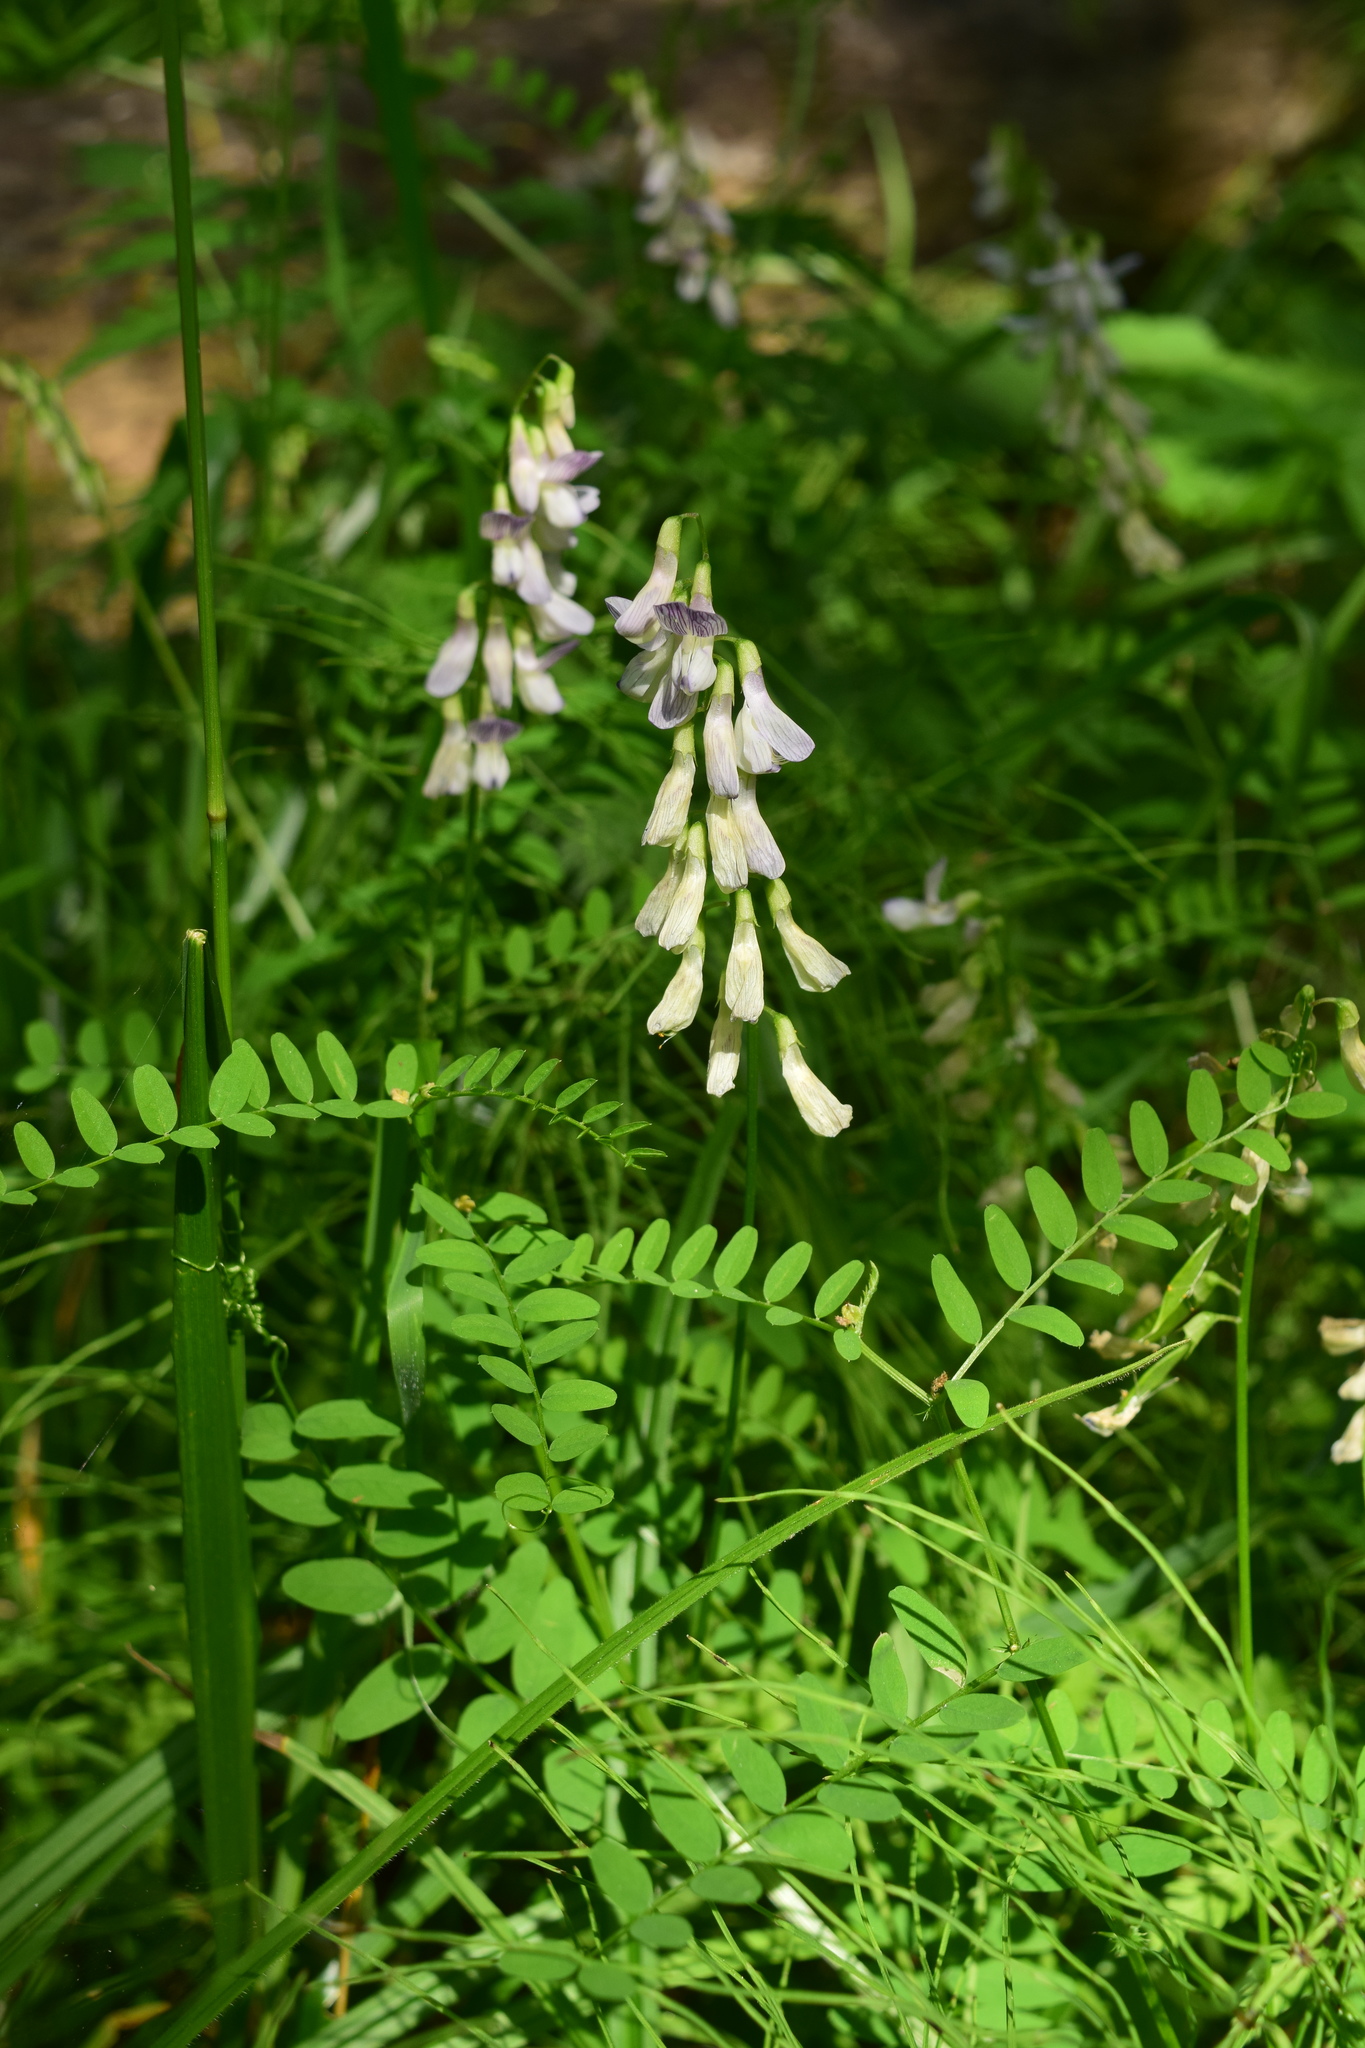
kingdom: Plantae
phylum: Tracheophyta
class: Magnoliopsida
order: Fabales
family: Fabaceae
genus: Vicia
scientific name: Vicia sylvatica
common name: Wood vetch
